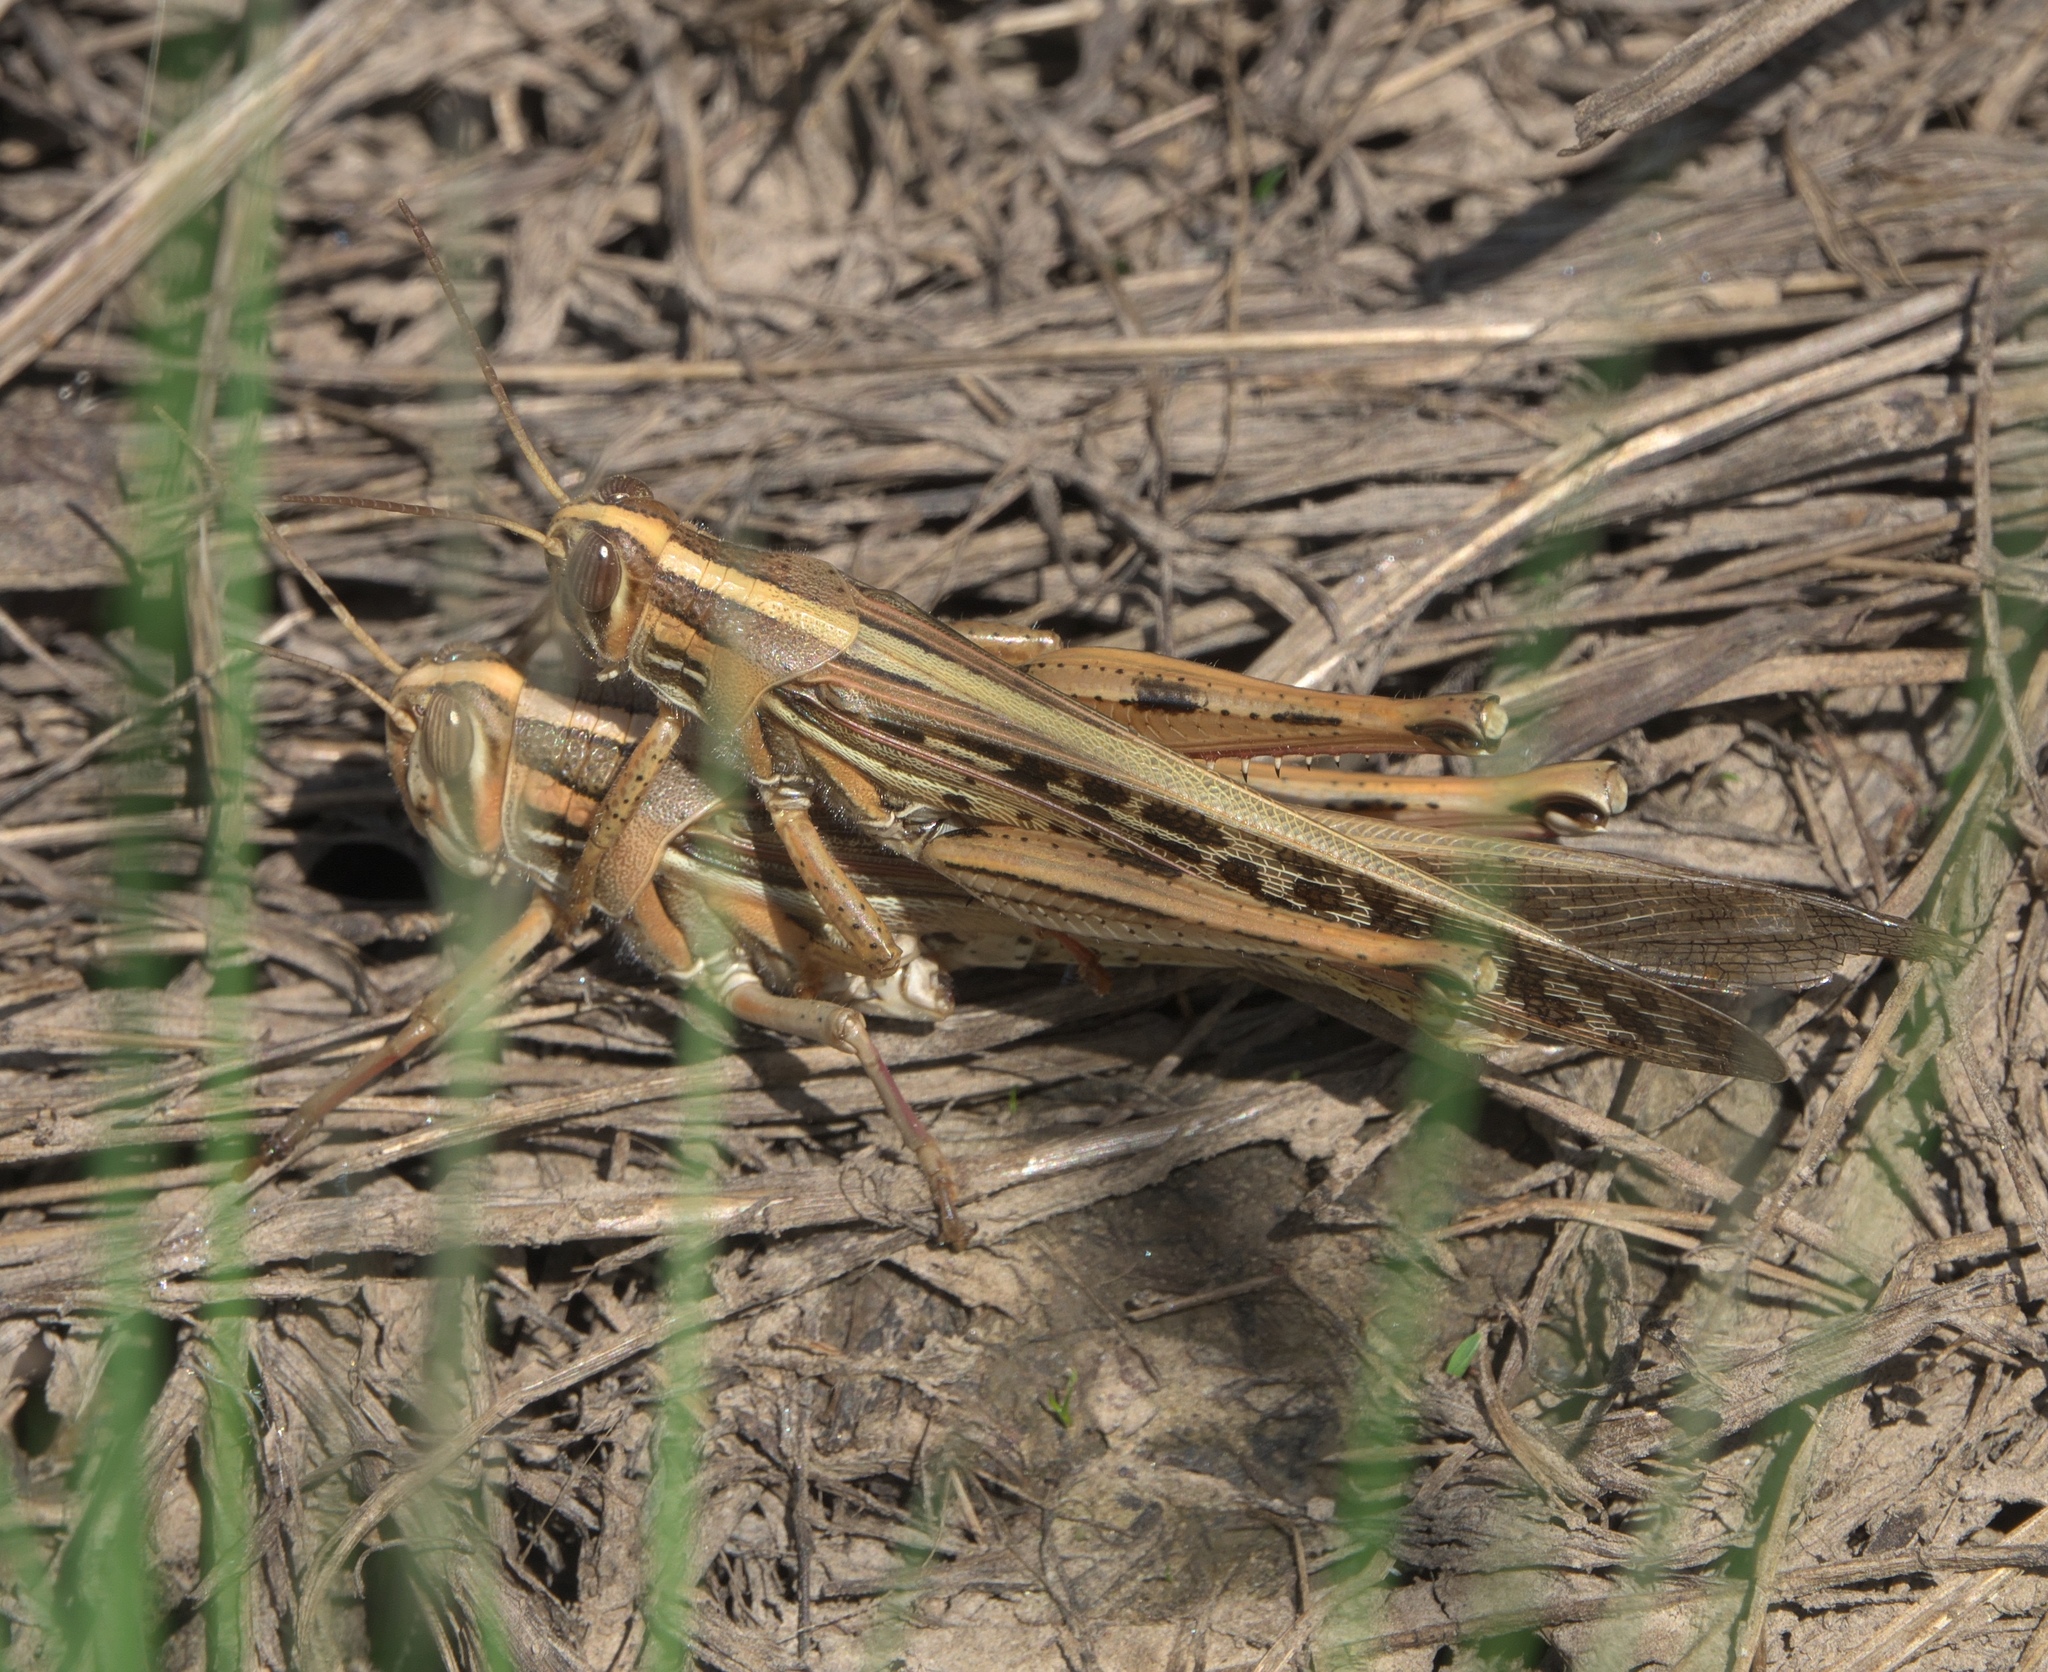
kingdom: Animalia
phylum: Arthropoda
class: Insecta
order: Orthoptera
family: Acrididae
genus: Schistocerca
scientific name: Schistocerca americana
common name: American bird locust
